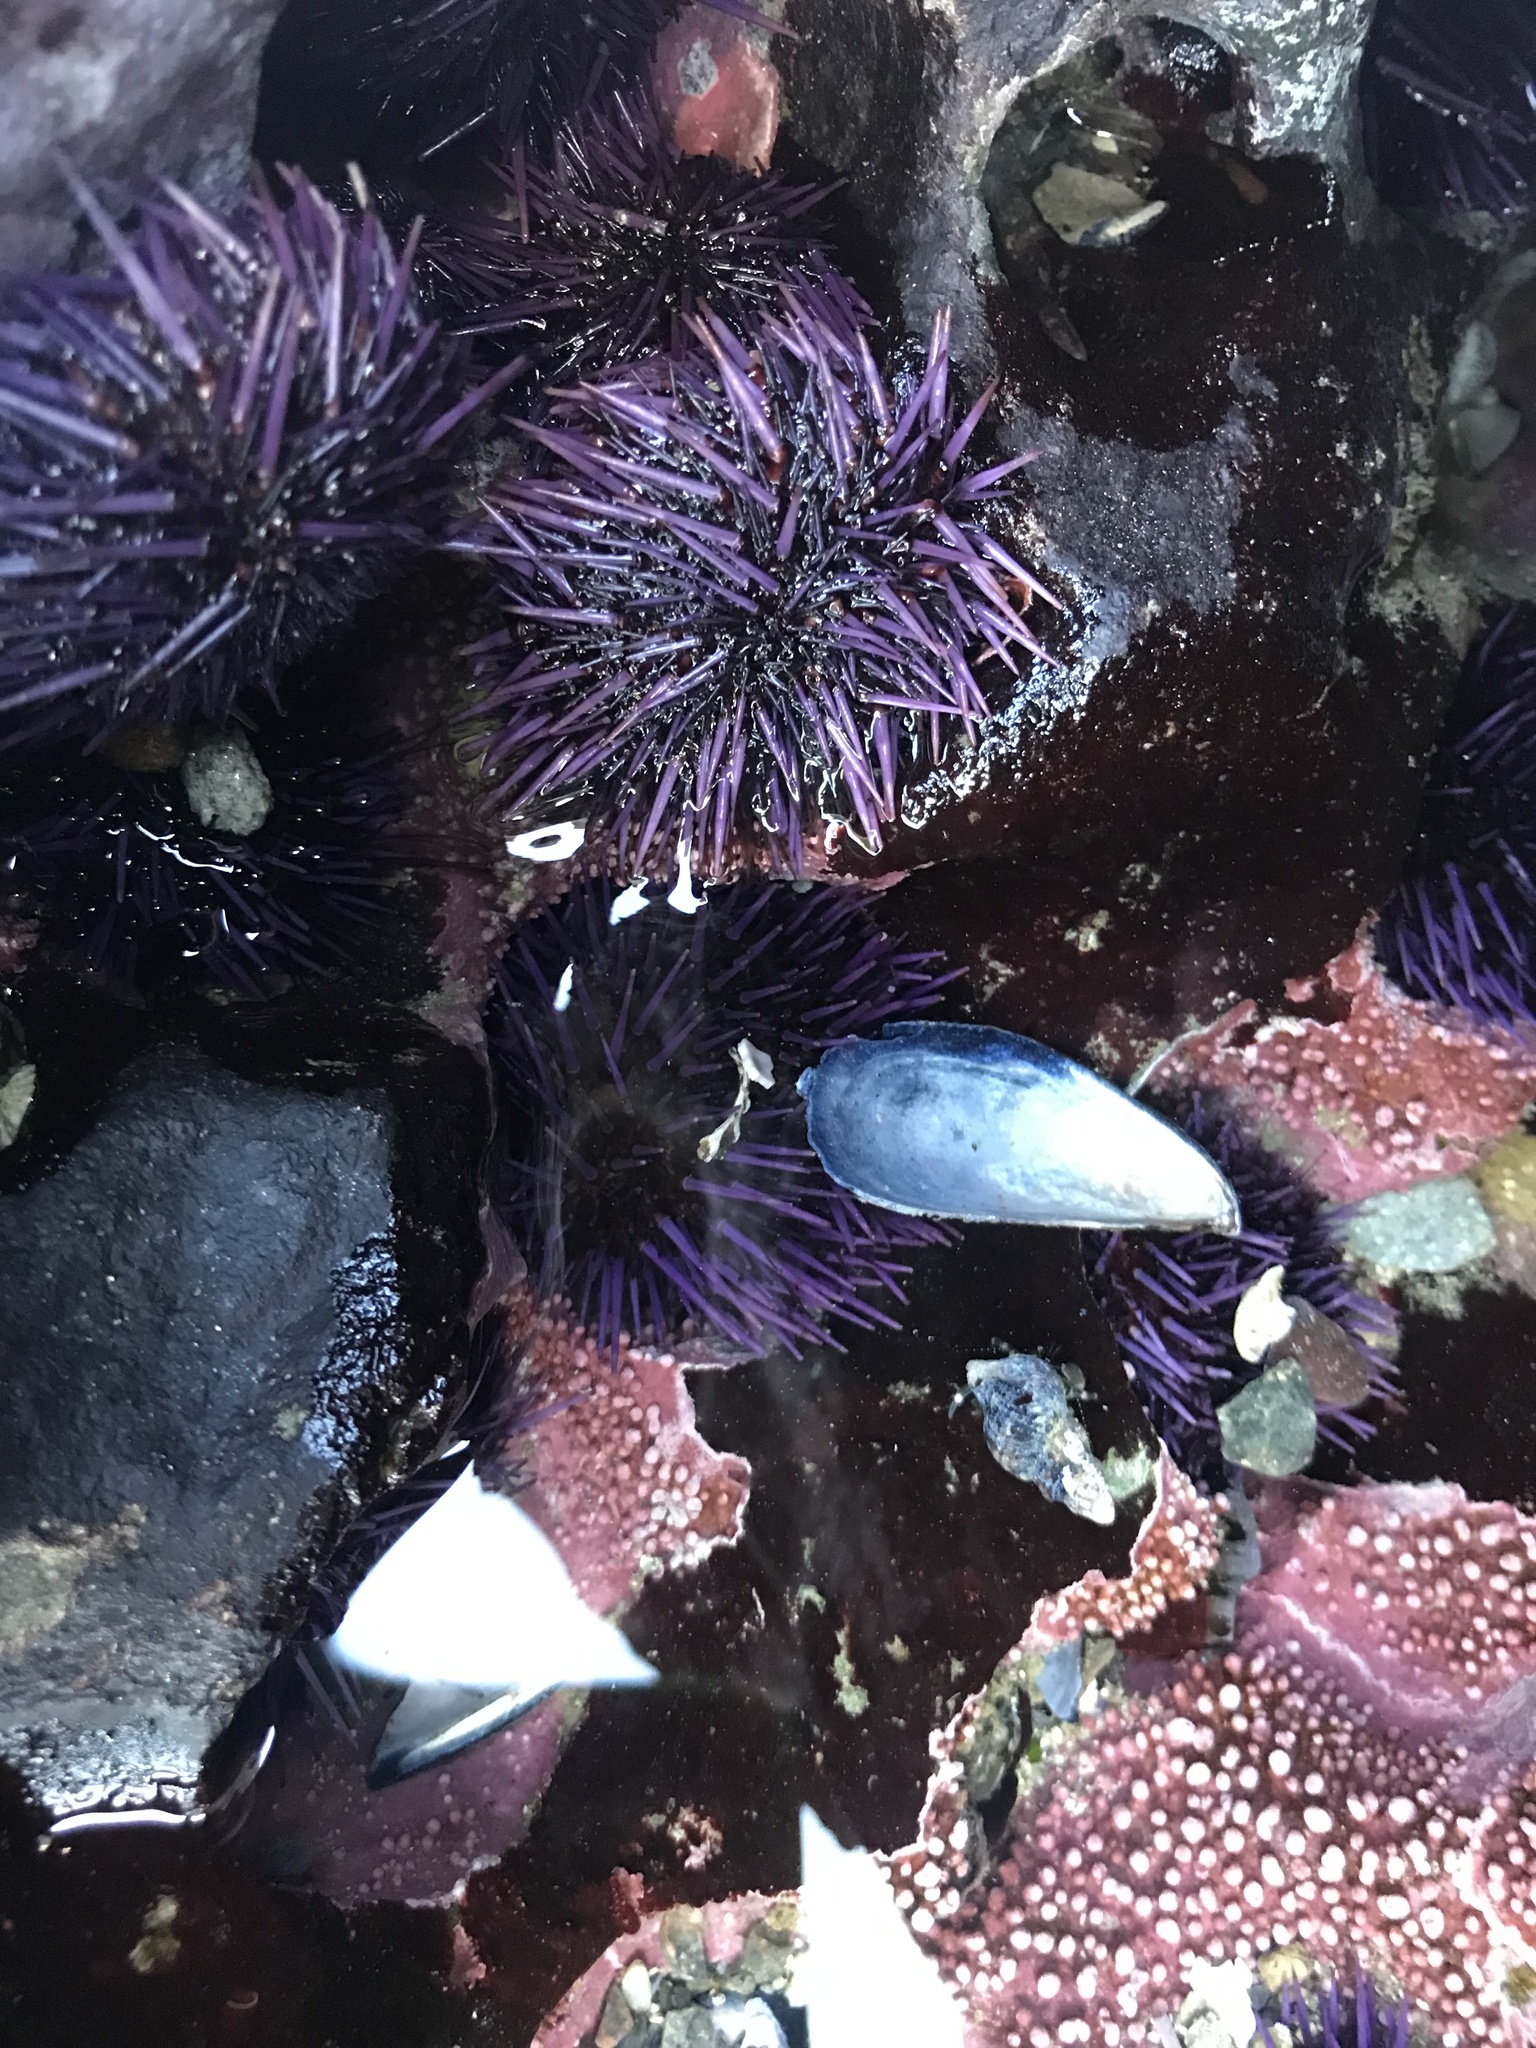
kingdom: Animalia
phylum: Echinodermata
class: Echinoidea
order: Camarodonta
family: Strongylocentrotidae
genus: Strongylocentrotus
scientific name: Strongylocentrotus purpuratus
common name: Purple sea urchin
